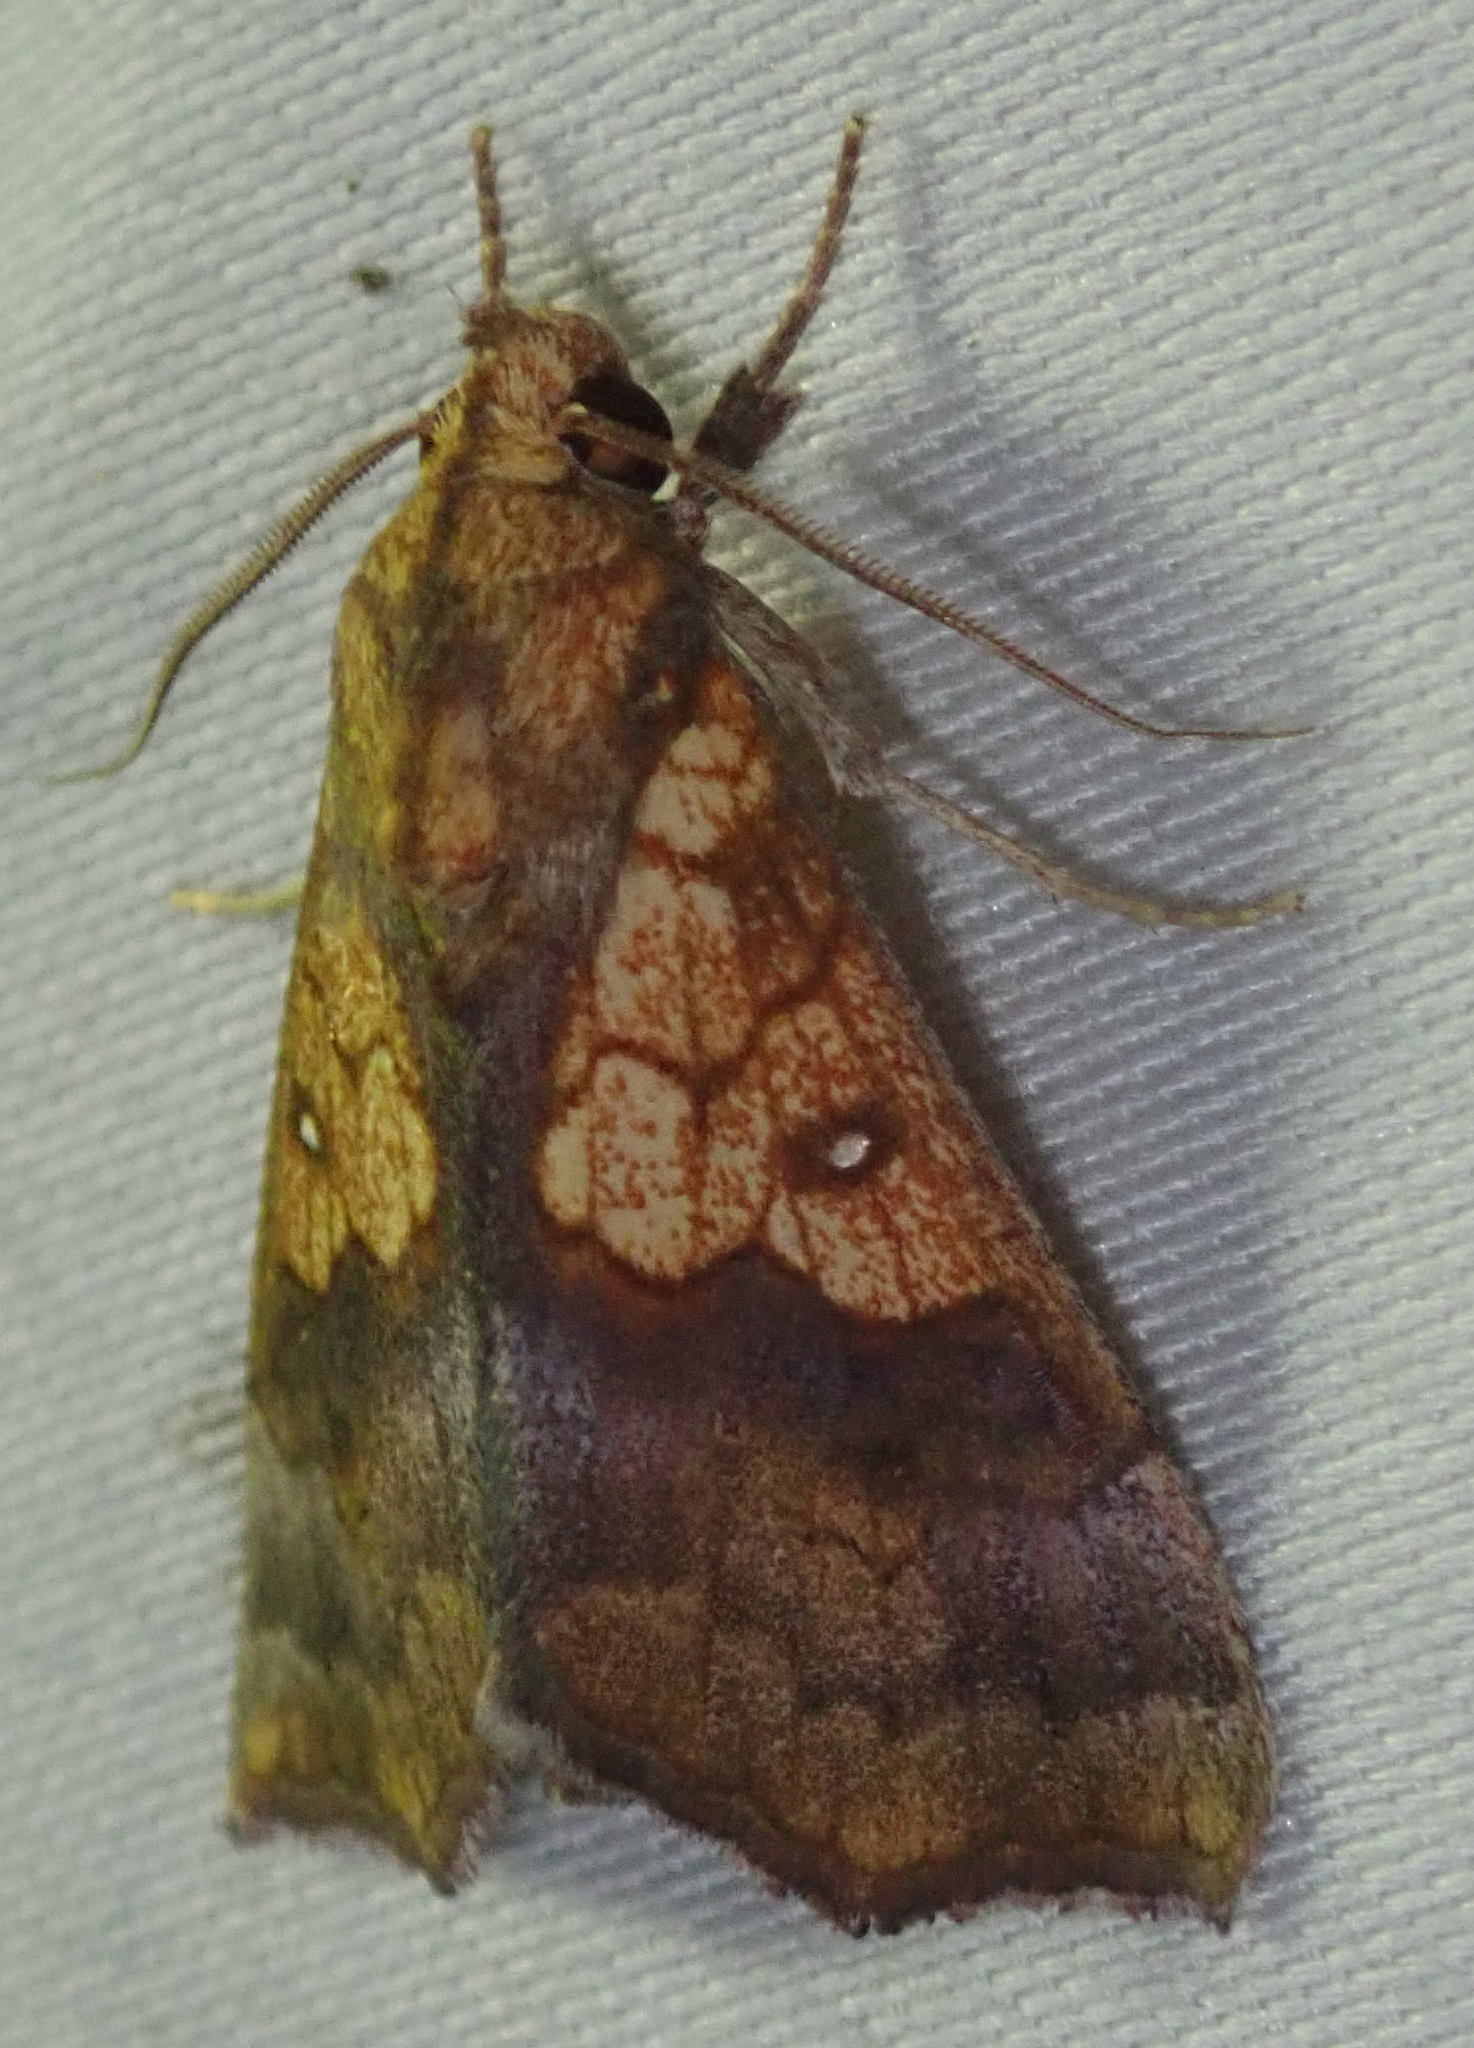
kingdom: Animalia
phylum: Arthropoda
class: Insecta
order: Lepidoptera
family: Erebidae
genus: Anomis
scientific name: Anomis flava
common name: Moth
